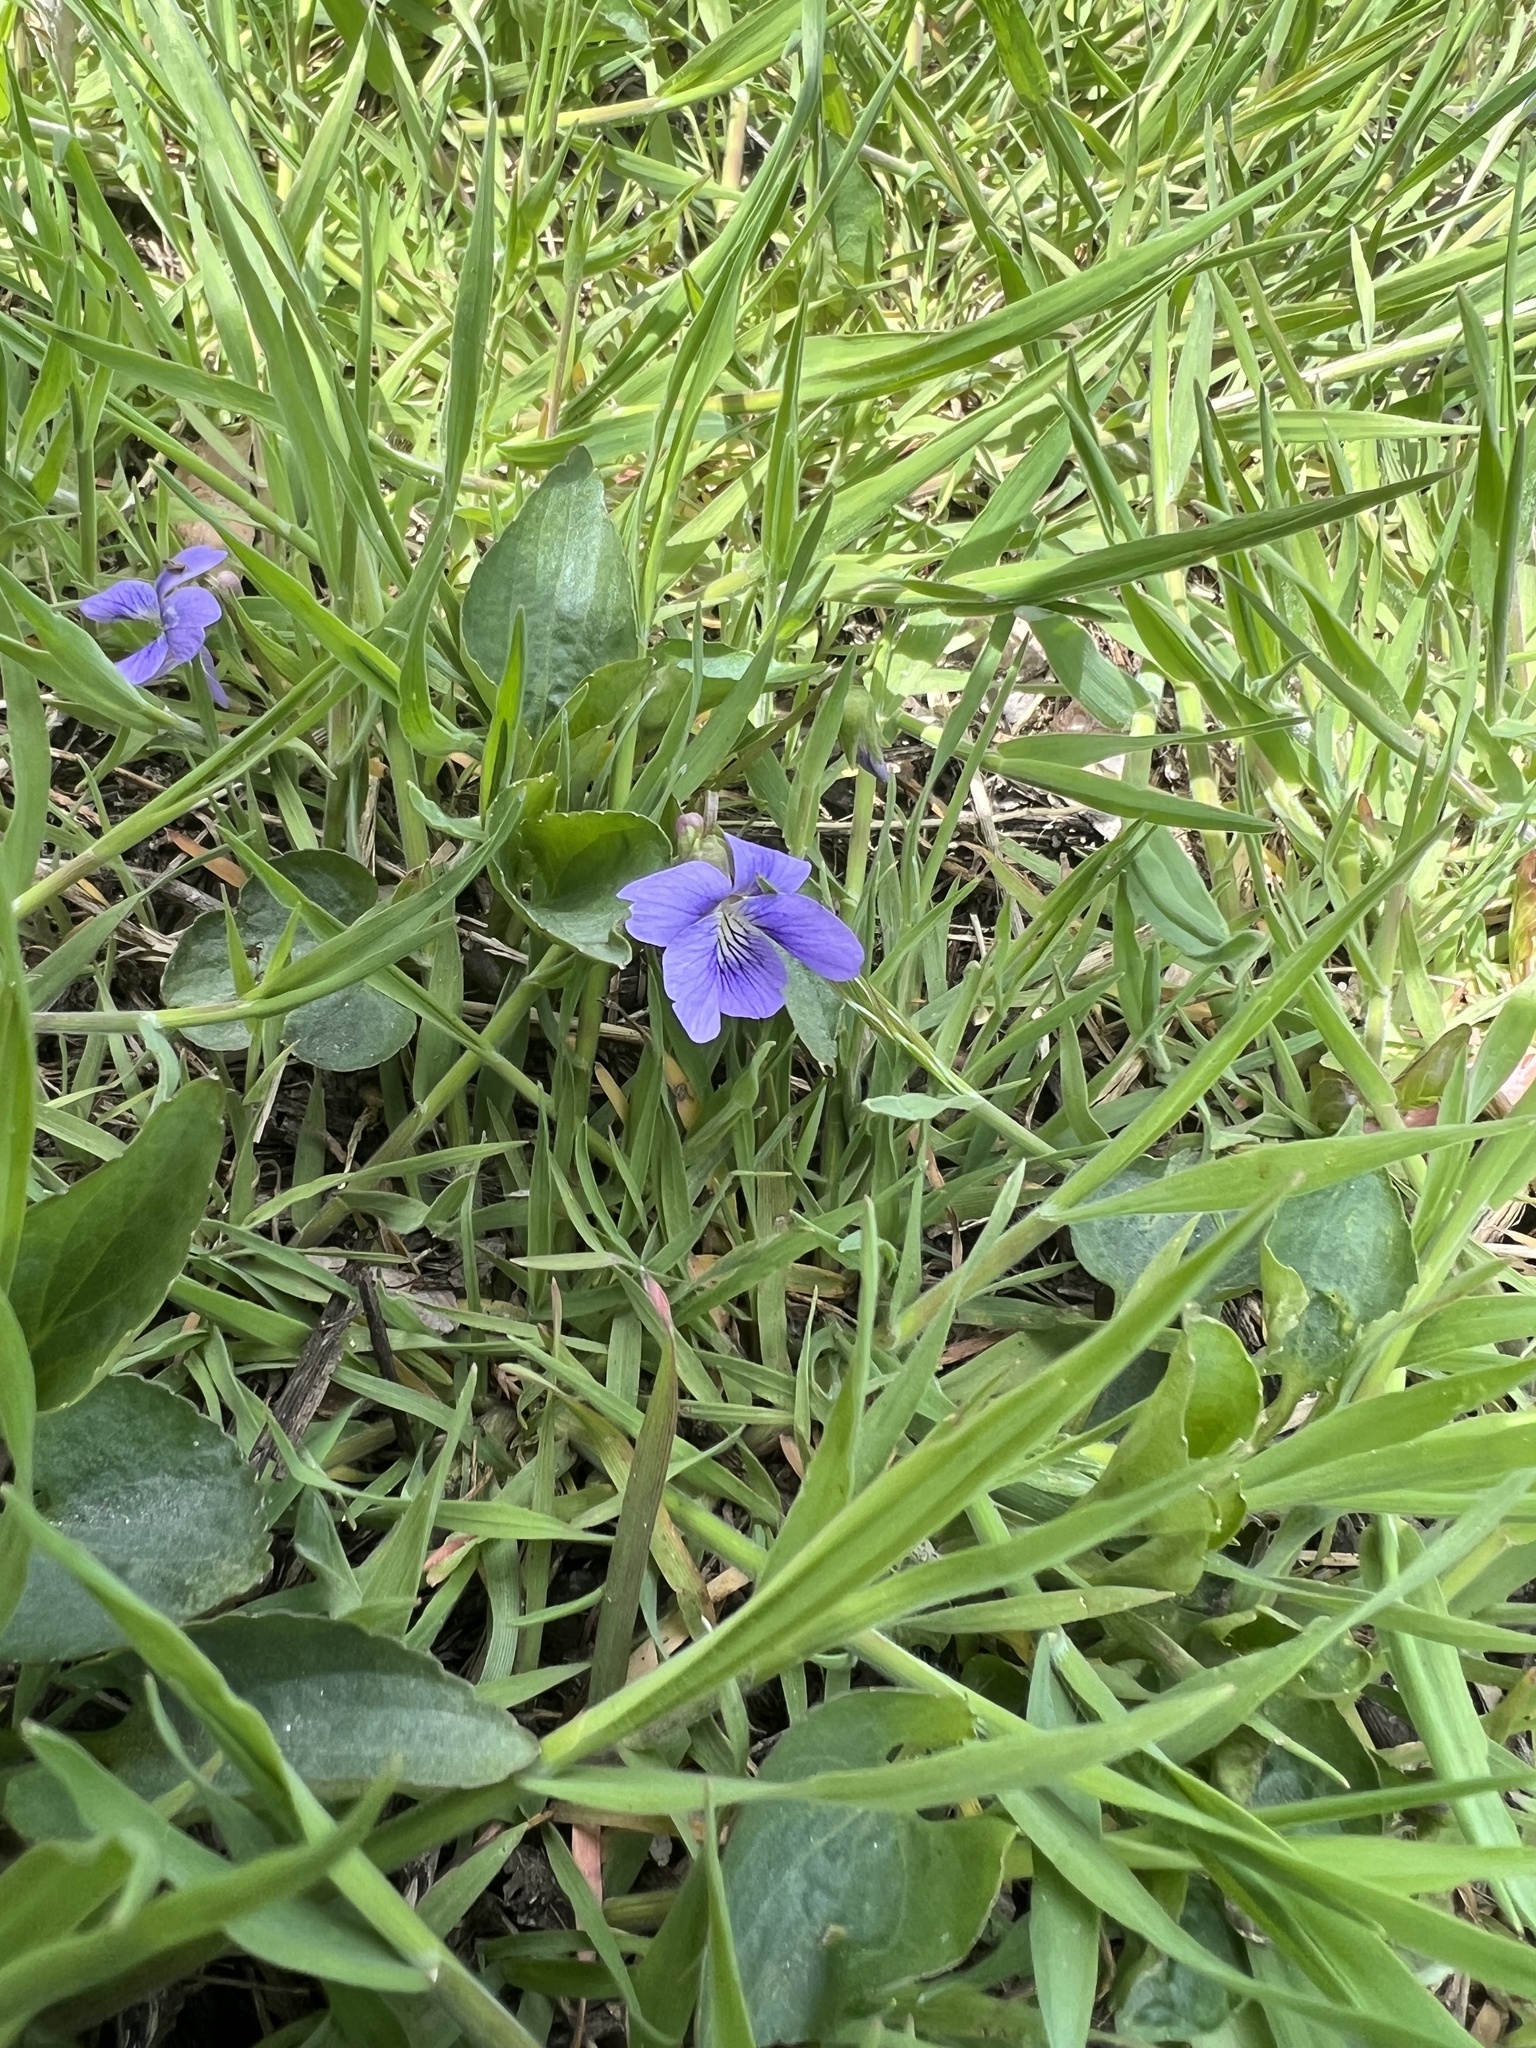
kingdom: Plantae
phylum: Tracheophyta
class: Magnoliopsida
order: Malpighiales
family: Violaceae
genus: Viola
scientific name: Viola sororia
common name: Dooryard violet
